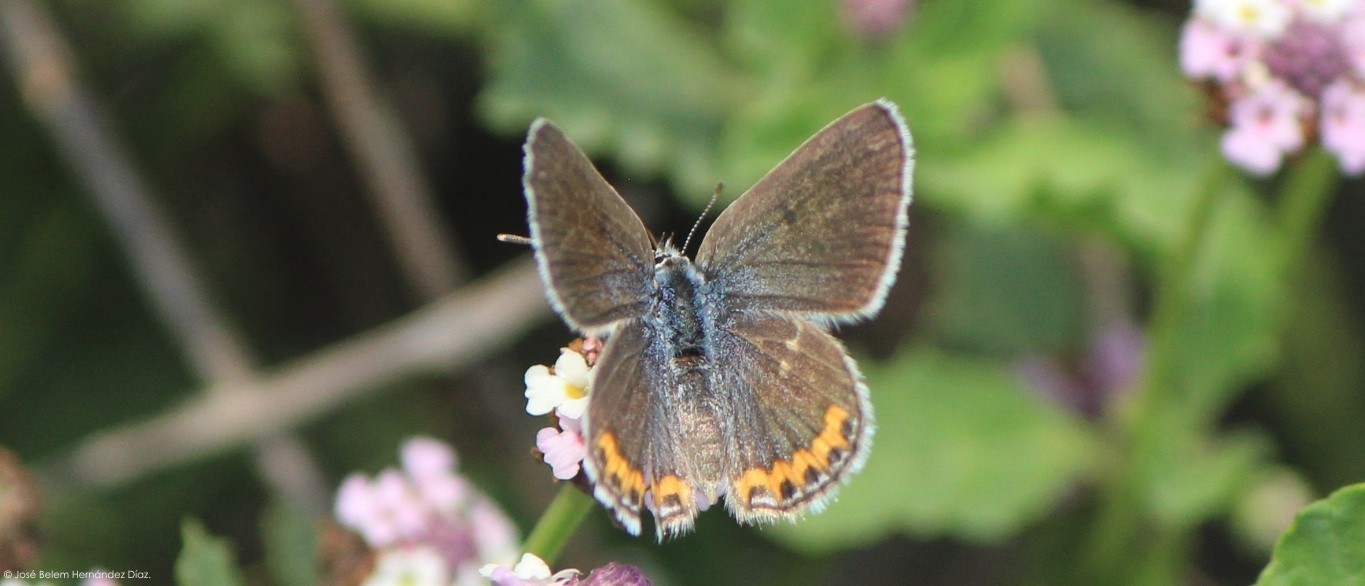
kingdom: Animalia
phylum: Arthropoda
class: Insecta
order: Lepidoptera
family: Lycaenidae
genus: Icaricia
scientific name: Icaricia lupini
